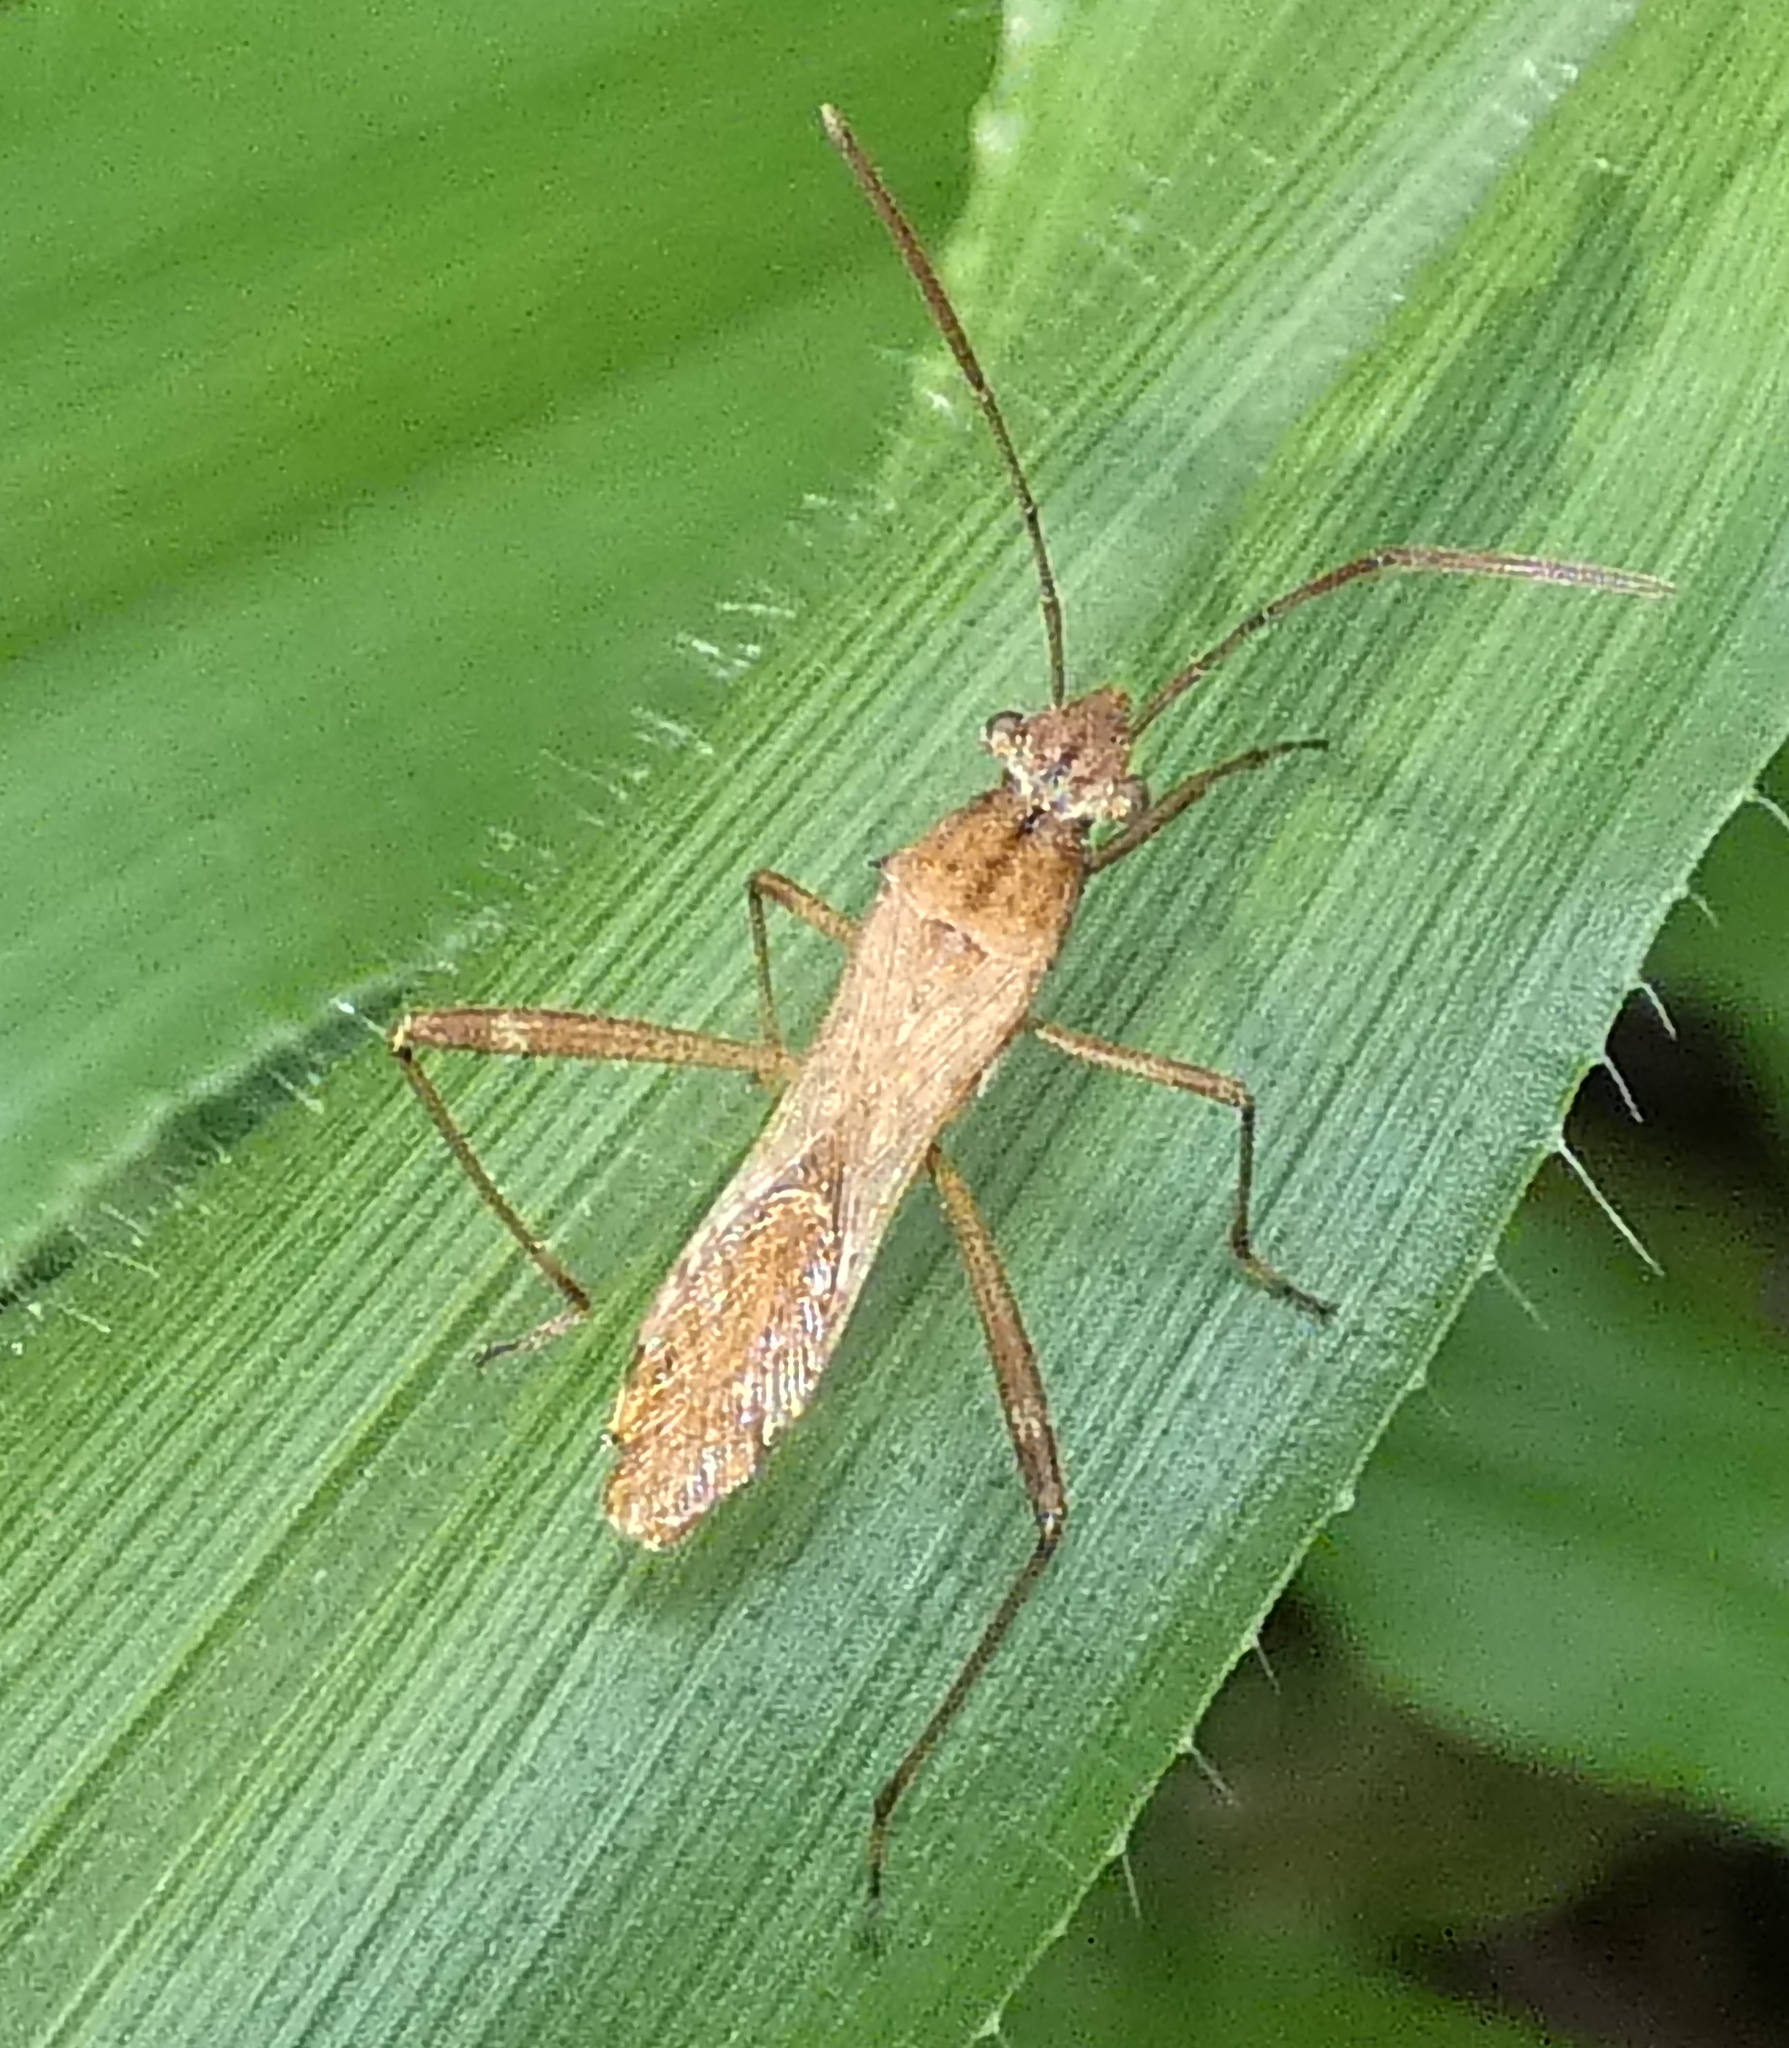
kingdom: Animalia
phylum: Arthropoda
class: Insecta
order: Hemiptera
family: Alydidae
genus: Neomegalotomus
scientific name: Neomegalotomus parvus
